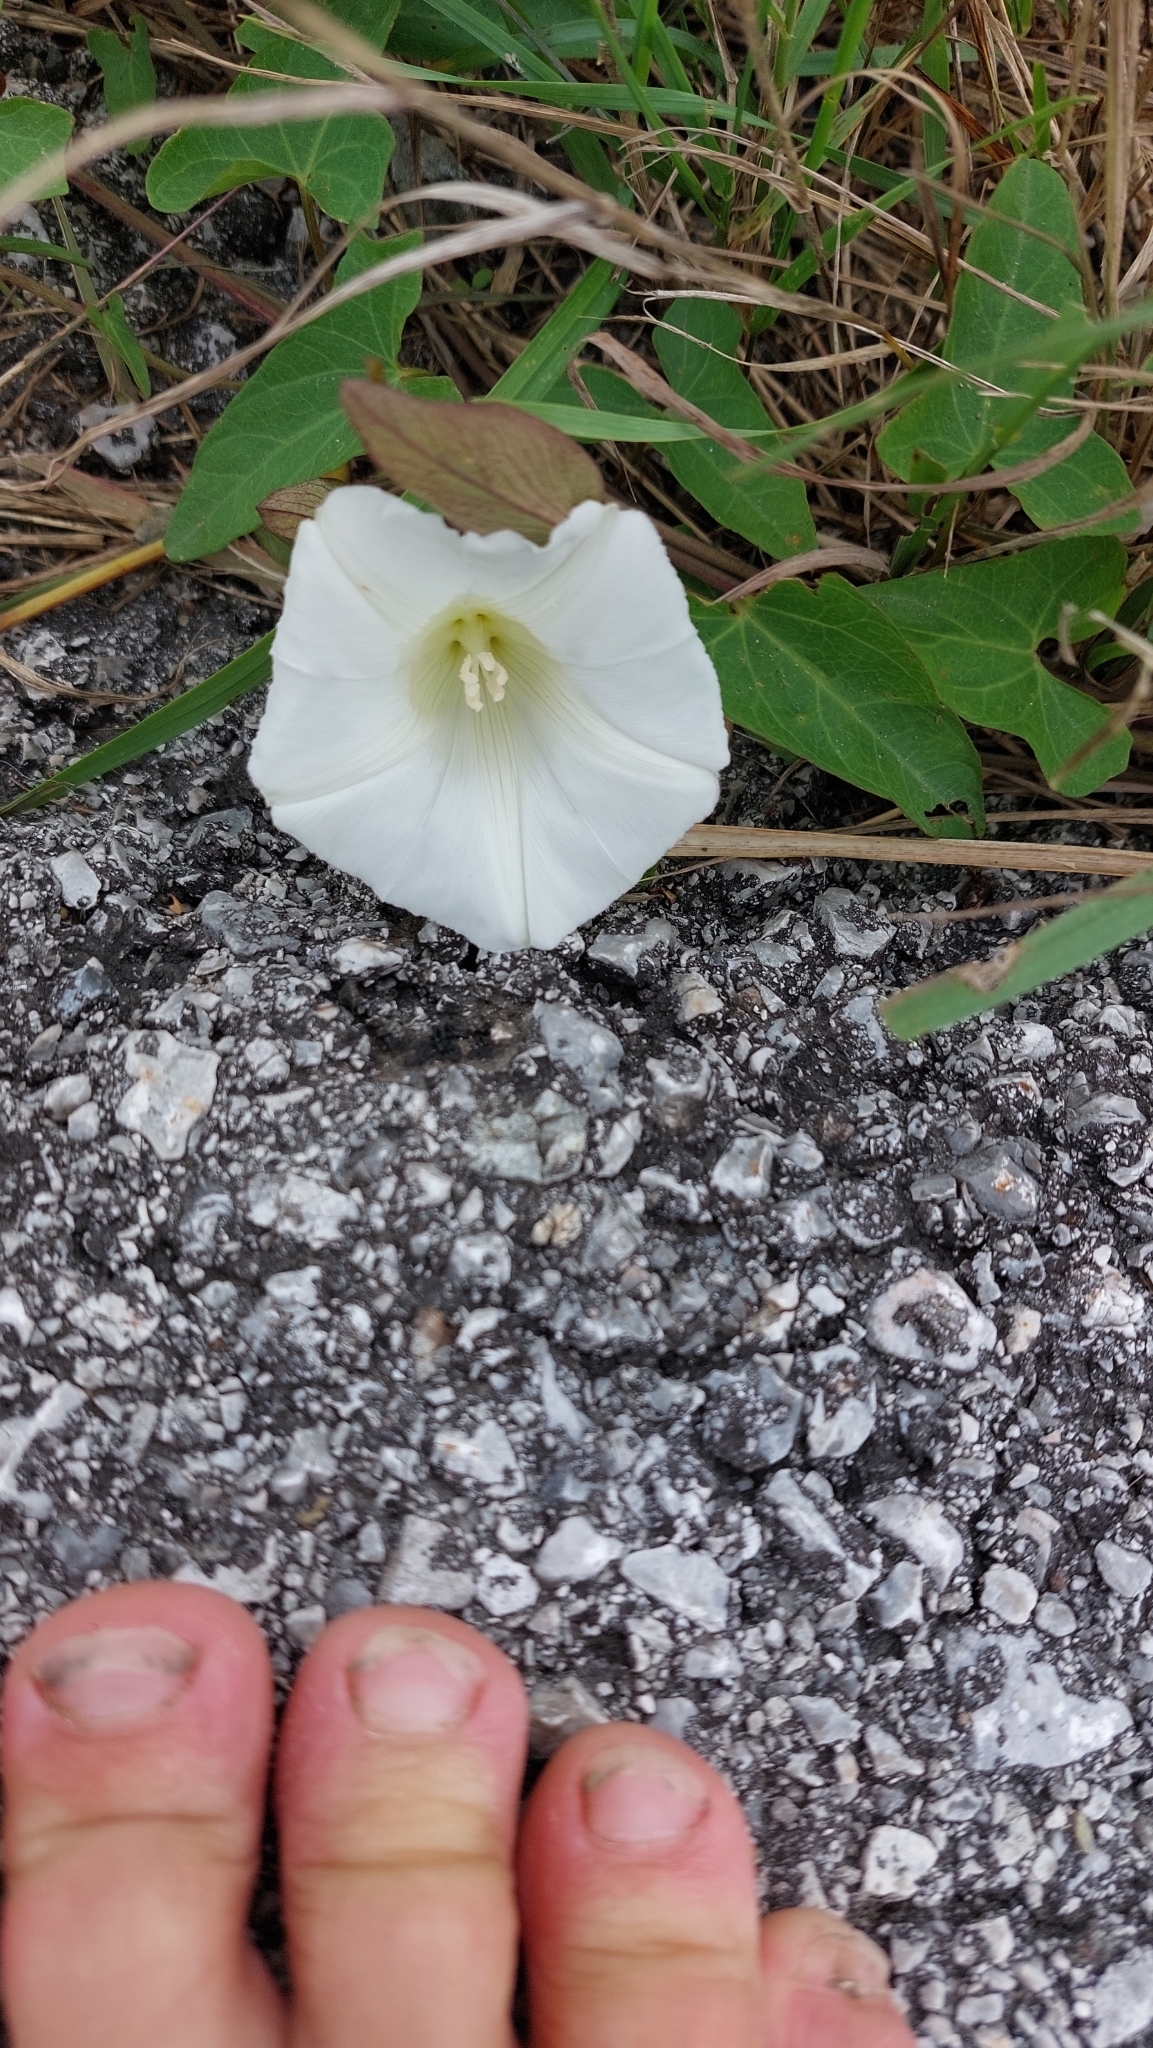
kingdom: Plantae
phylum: Tracheophyta
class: Magnoliopsida
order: Solanales
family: Convolvulaceae
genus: Calystegia
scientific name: Calystegia sepium
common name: Hedge bindweed
